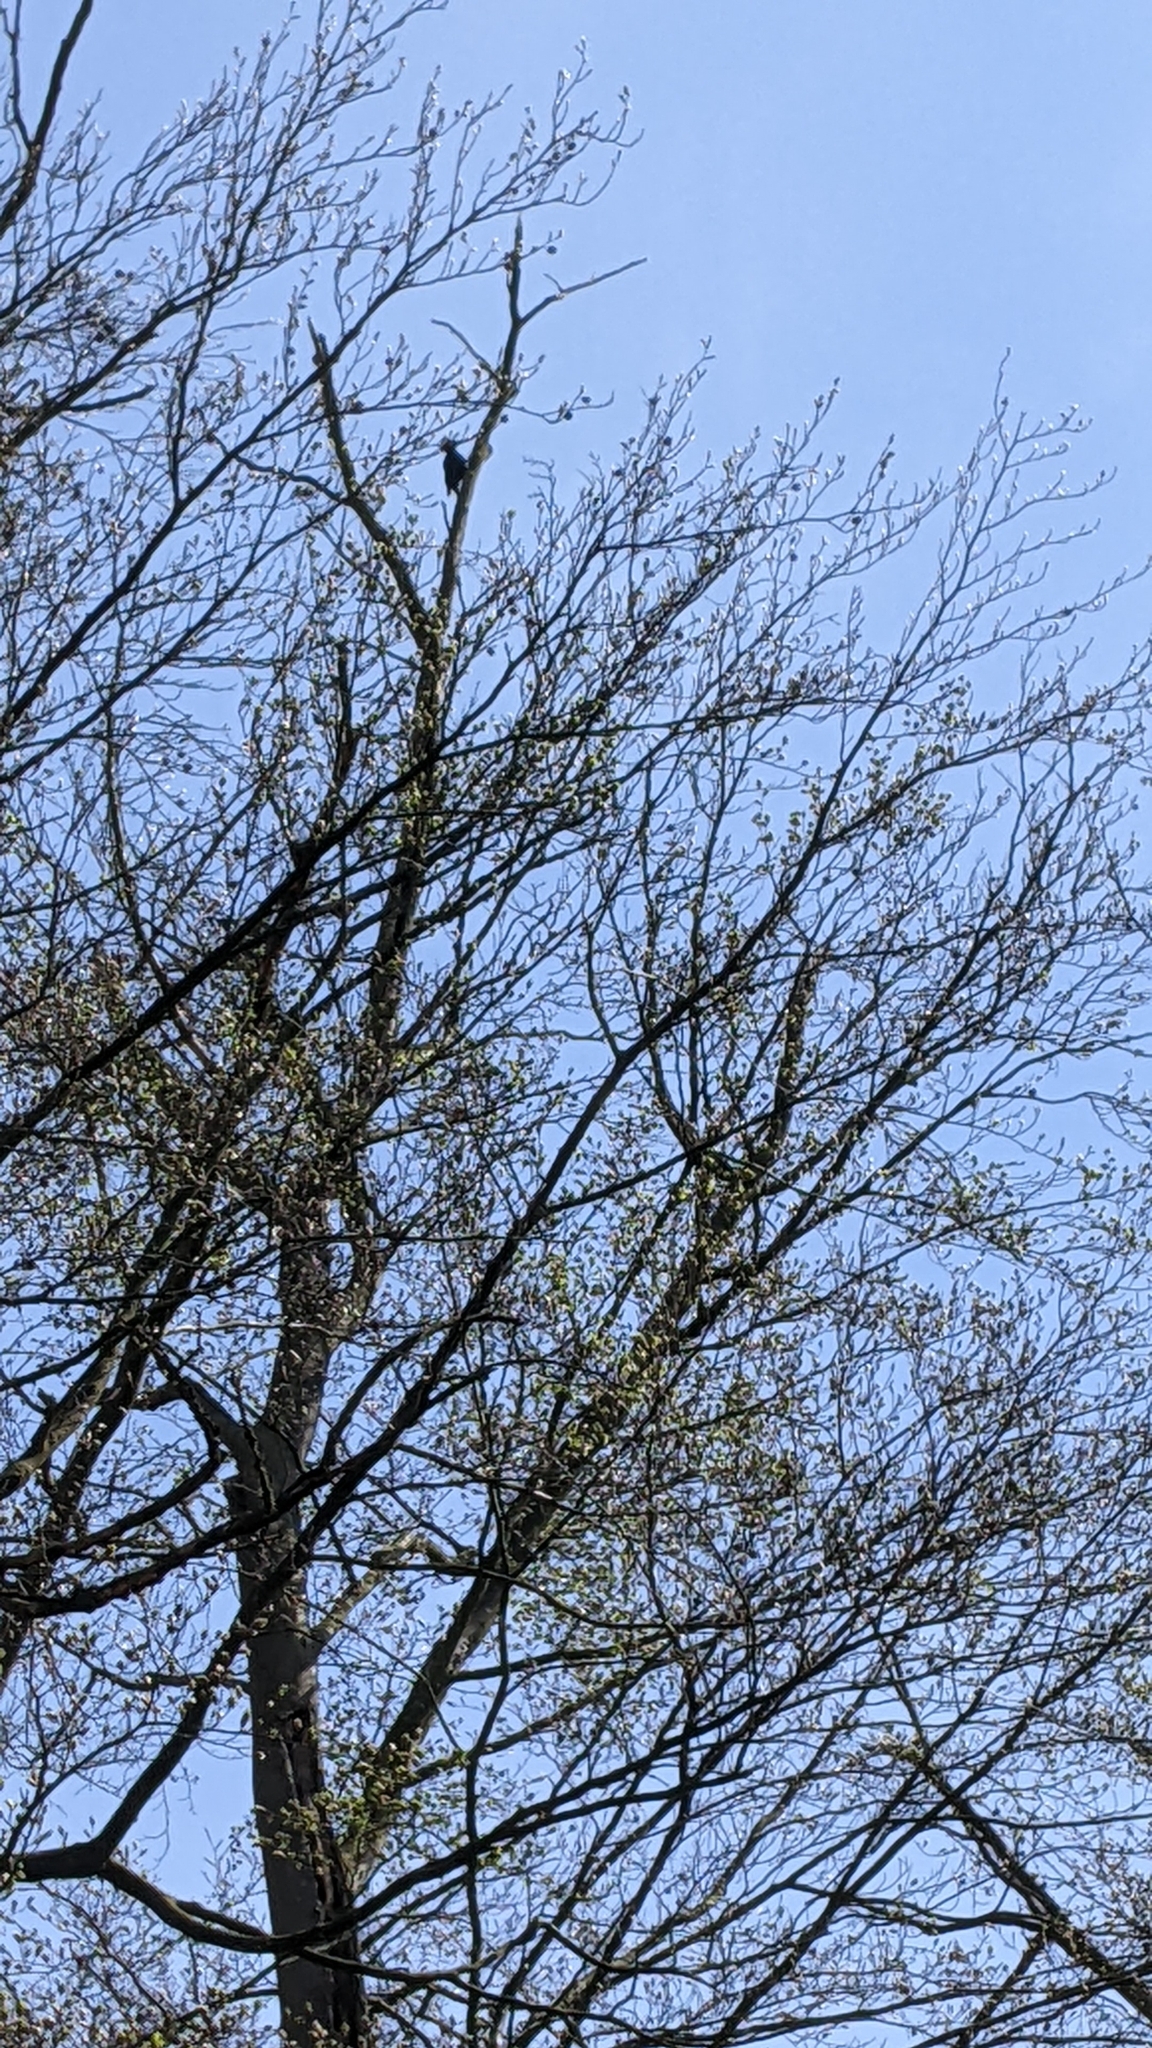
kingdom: Animalia
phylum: Chordata
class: Aves
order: Piciformes
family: Picidae
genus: Dryocopus
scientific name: Dryocopus martius
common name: Black woodpecker
